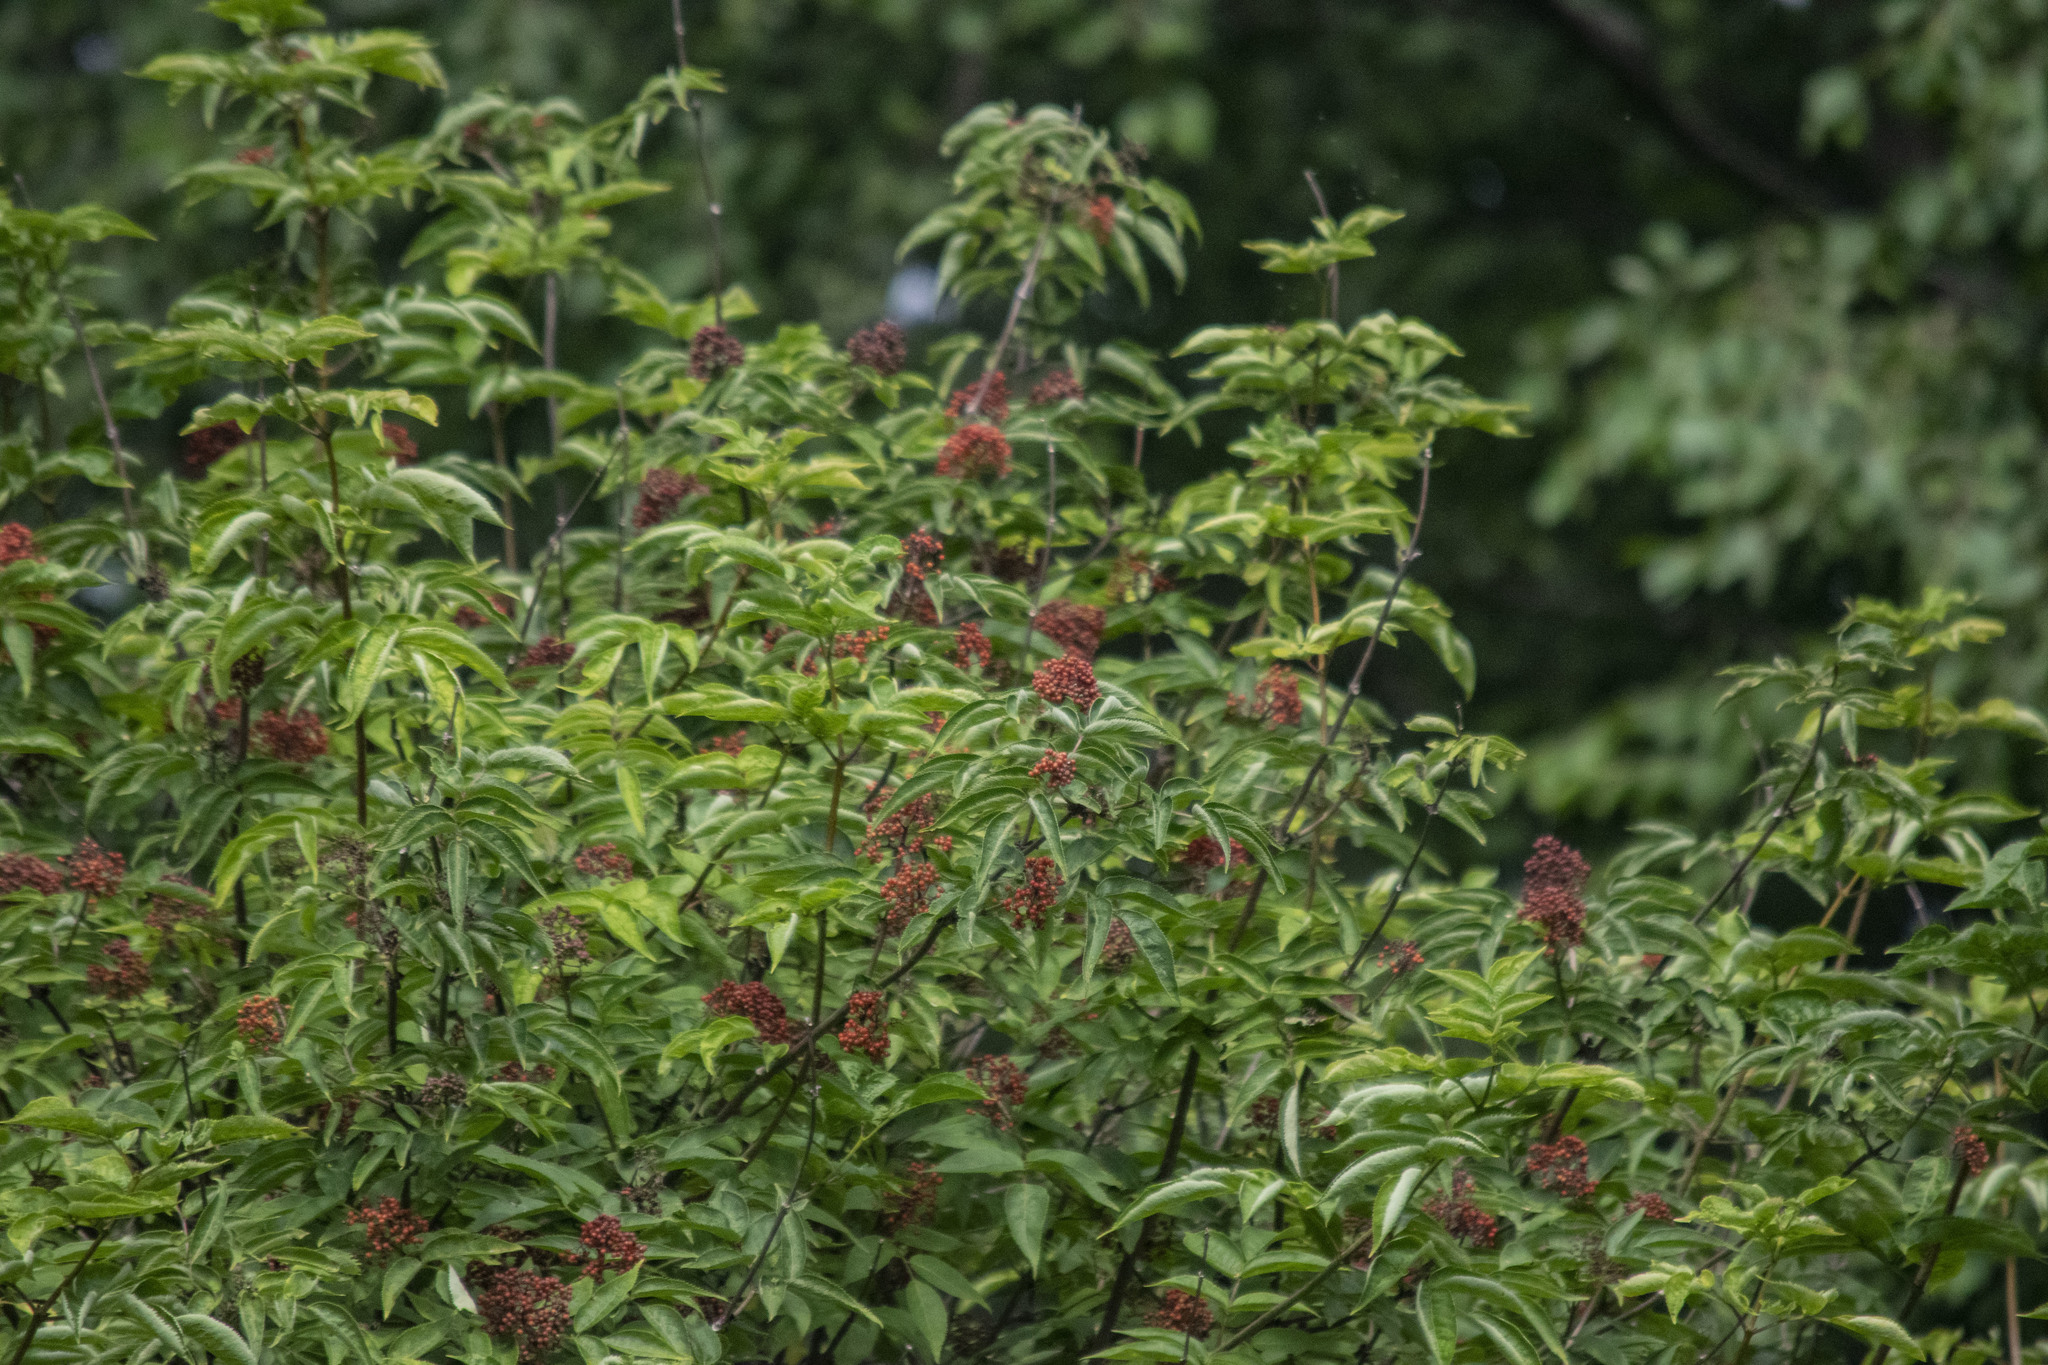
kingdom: Plantae
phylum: Tracheophyta
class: Magnoliopsida
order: Dipsacales
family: Viburnaceae
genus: Sambucus
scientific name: Sambucus racemosa
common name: Red-berried elder
